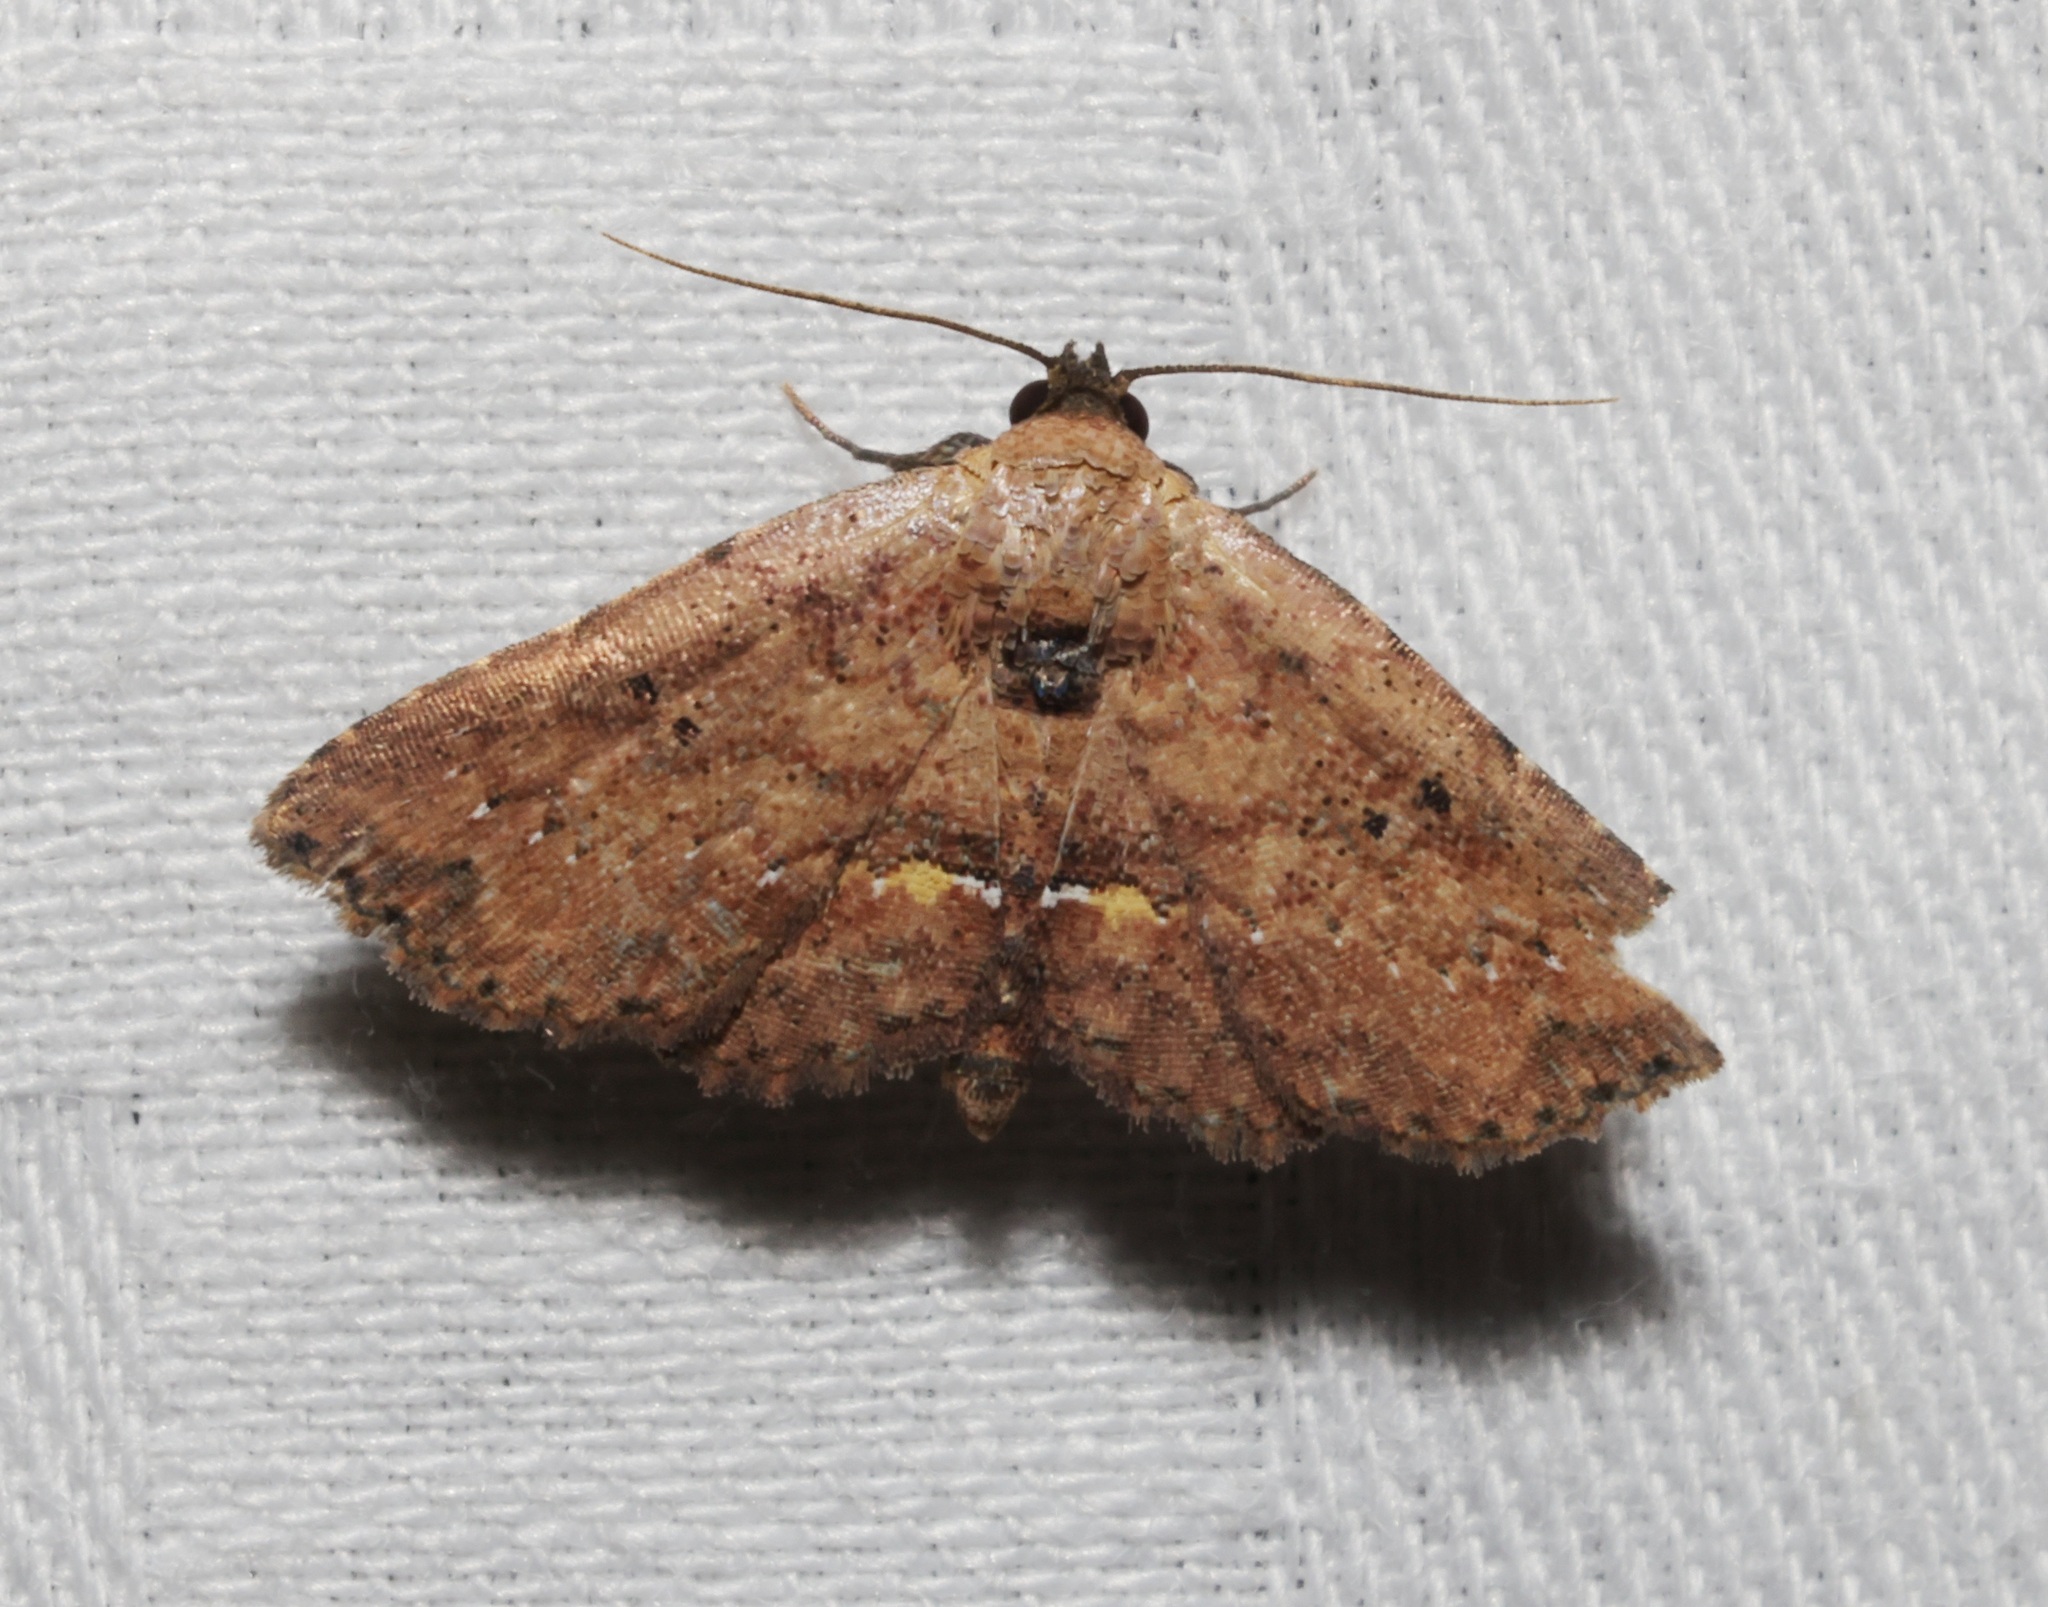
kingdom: Animalia
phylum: Arthropoda
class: Insecta
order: Lepidoptera
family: Noctuidae
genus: Cerynea
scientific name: Cerynea discontenta
